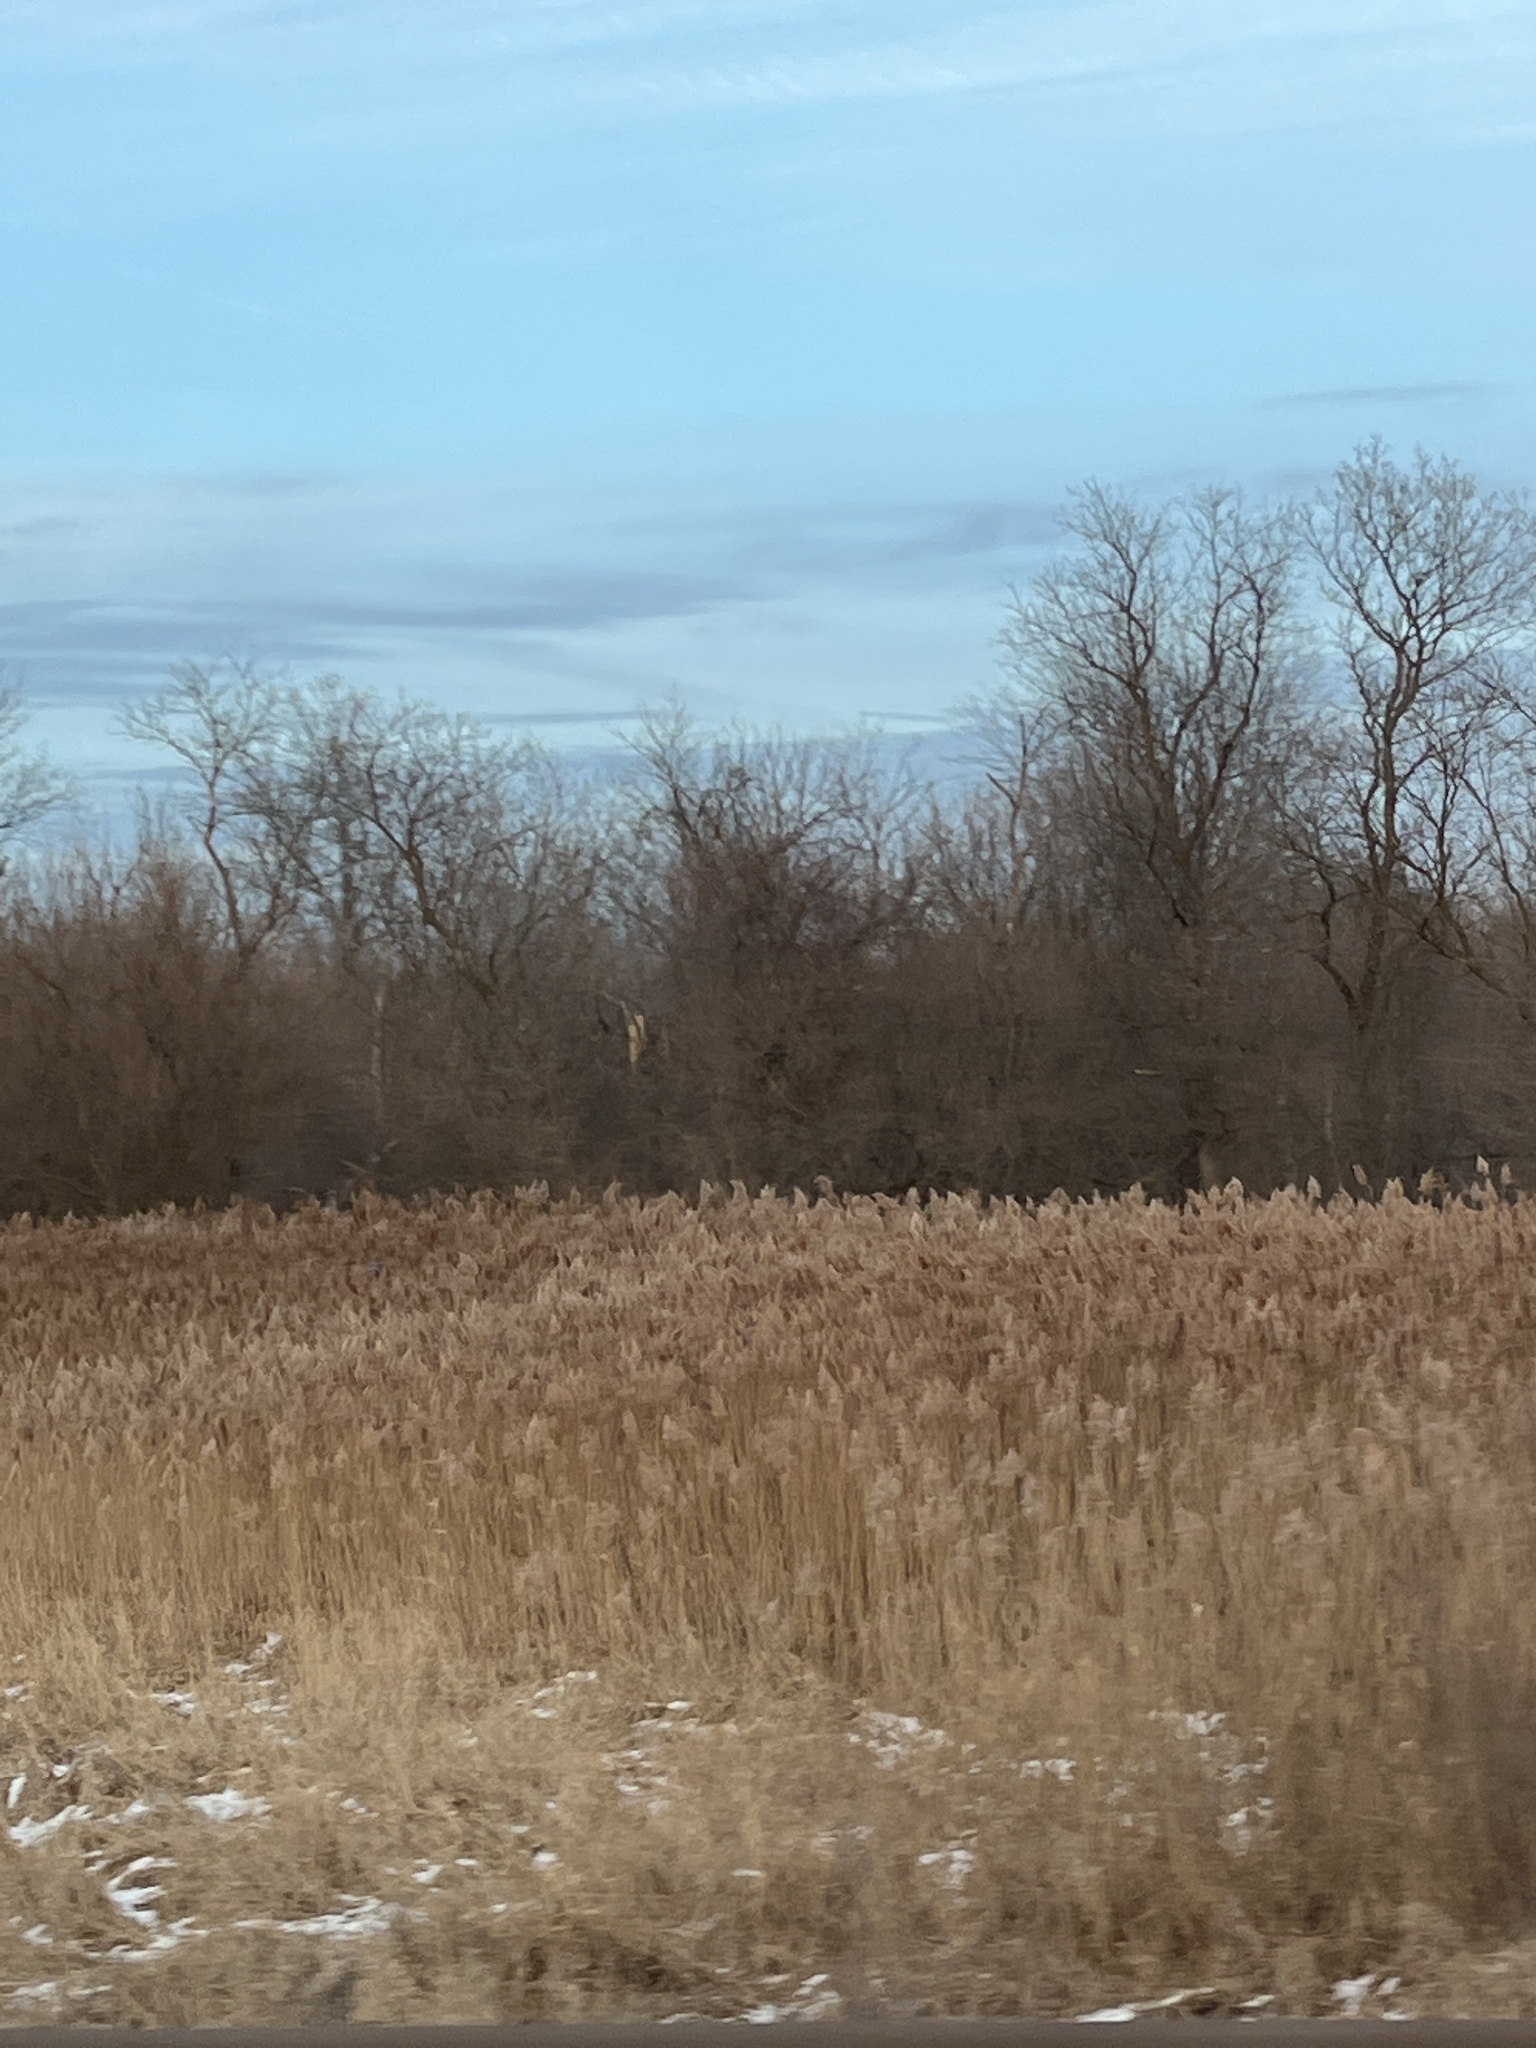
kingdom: Plantae
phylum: Tracheophyta
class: Liliopsida
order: Poales
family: Poaceae
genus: Phragmites
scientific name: Phragmites australis
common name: Common reed
